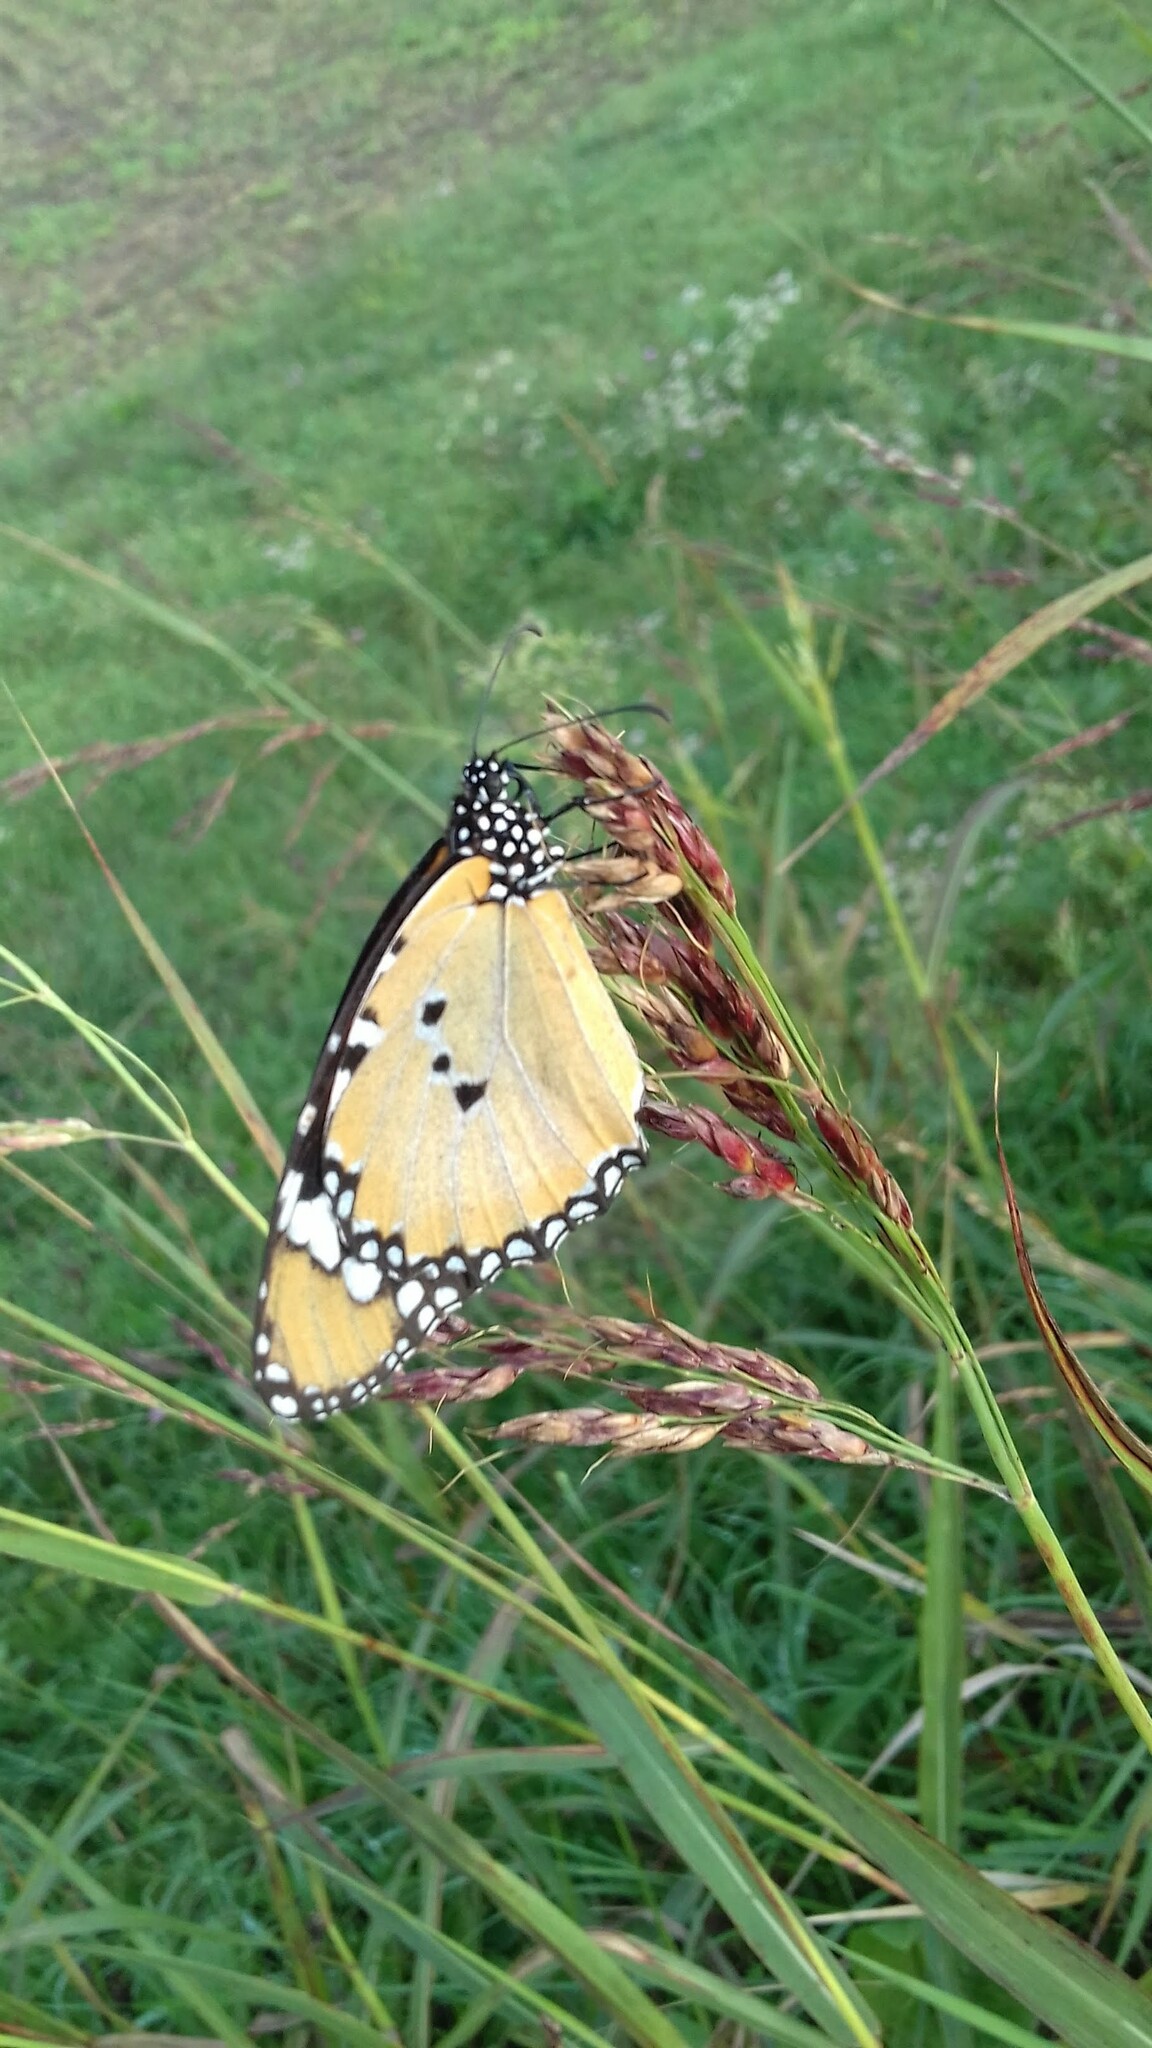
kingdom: Animalia
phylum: Arthropoda
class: Insecta
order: Lepidoptera
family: Nymphalidae
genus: Danaus
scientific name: Danaus chrysippus
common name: Plain tiger
